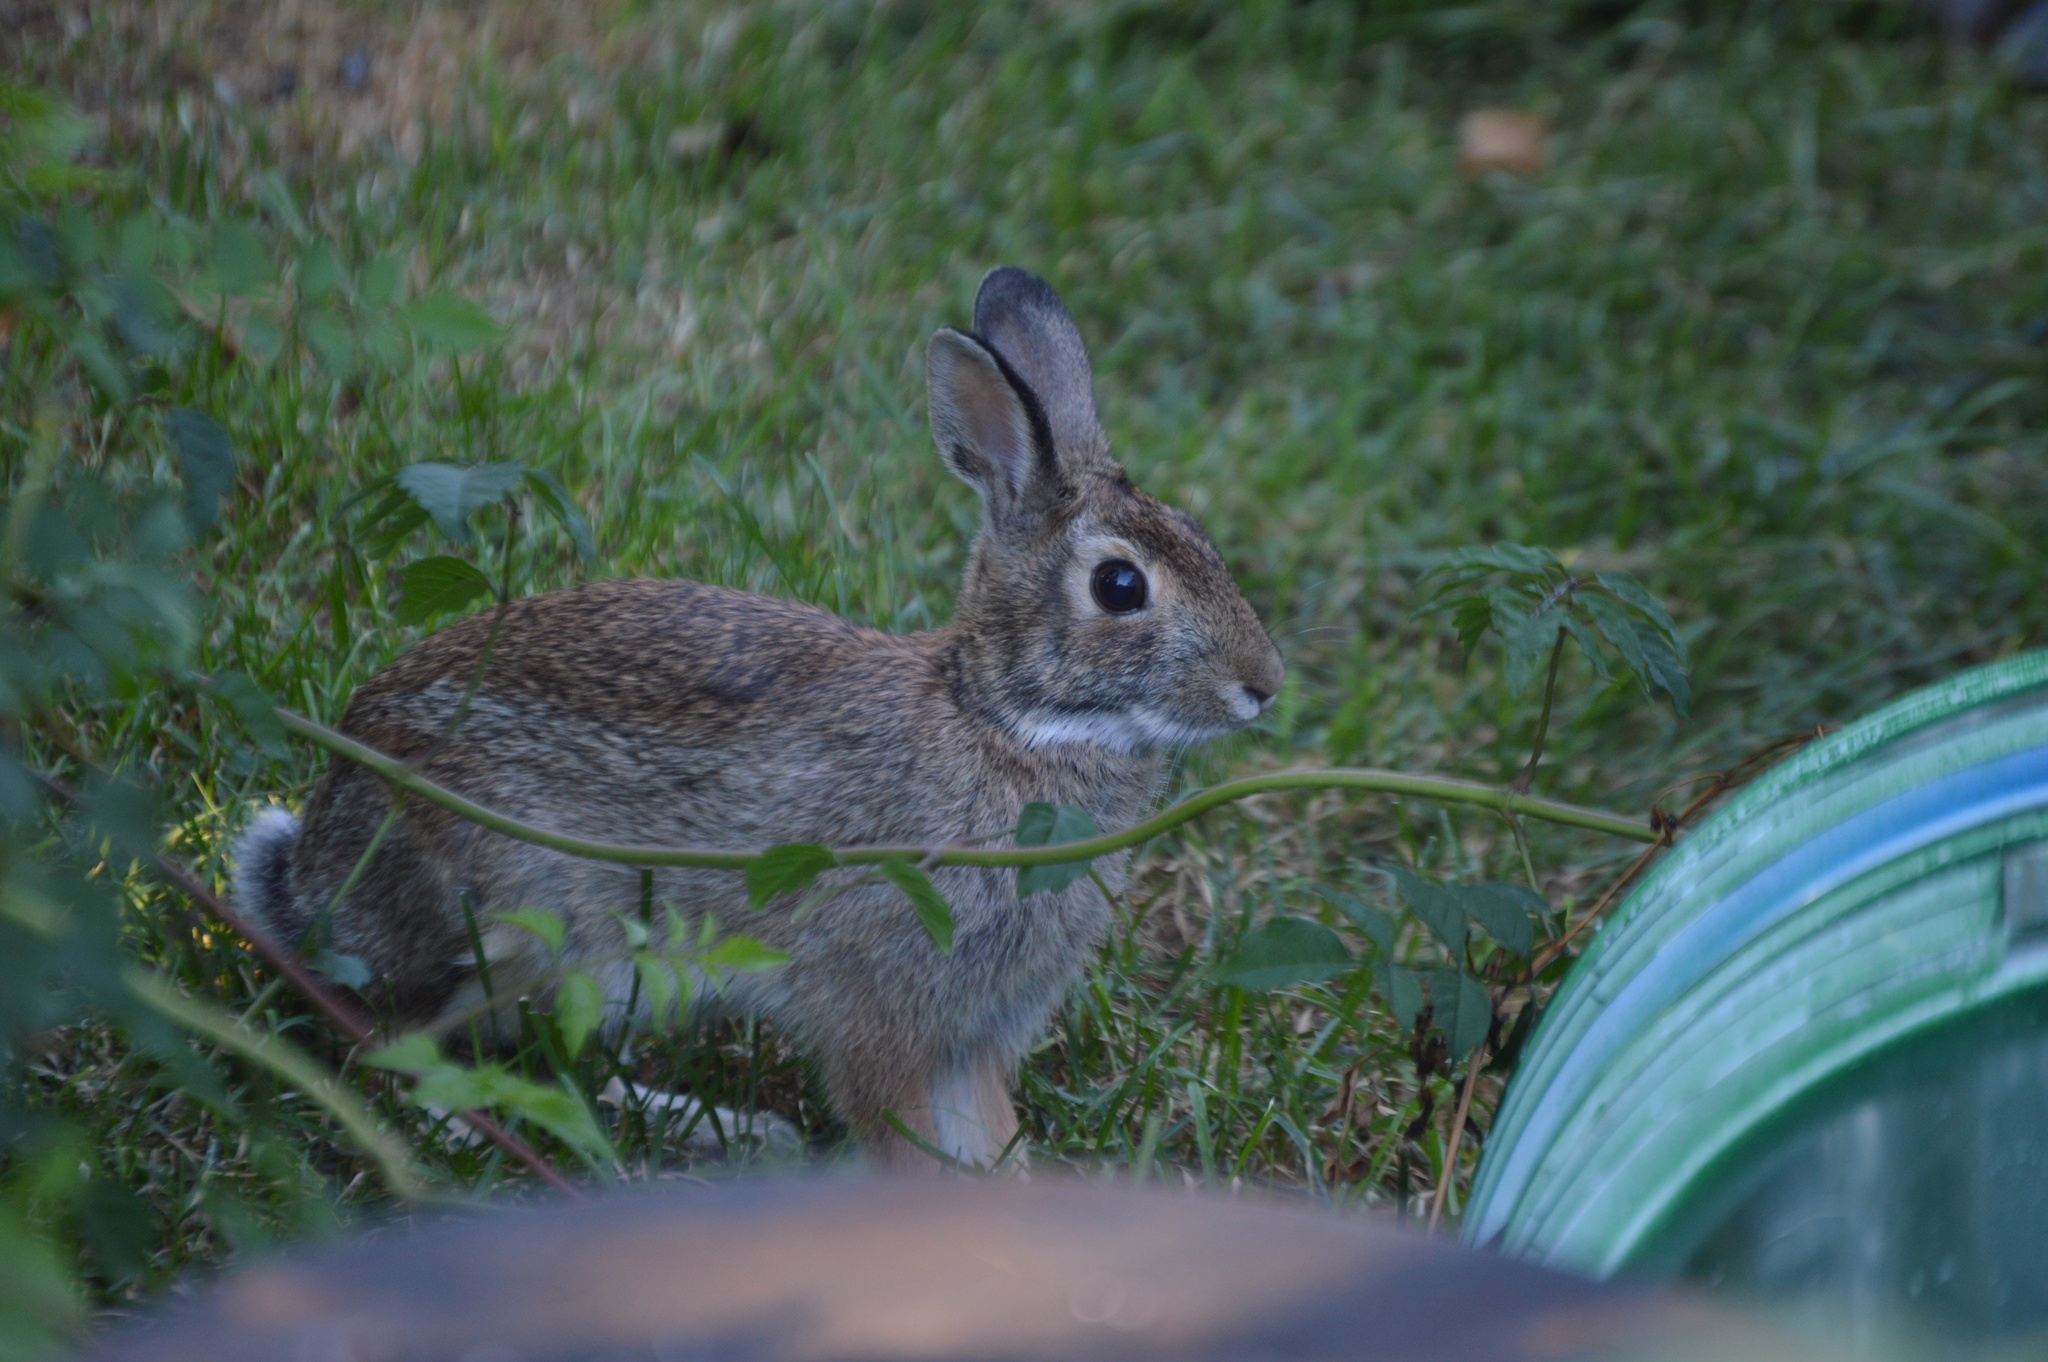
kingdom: Animalia
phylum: Chordata
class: Mammalia
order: Lagomorpha
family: Leporidae
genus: Sylvilagus
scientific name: Sylvilagus floridanus
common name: Eastern cottontail
